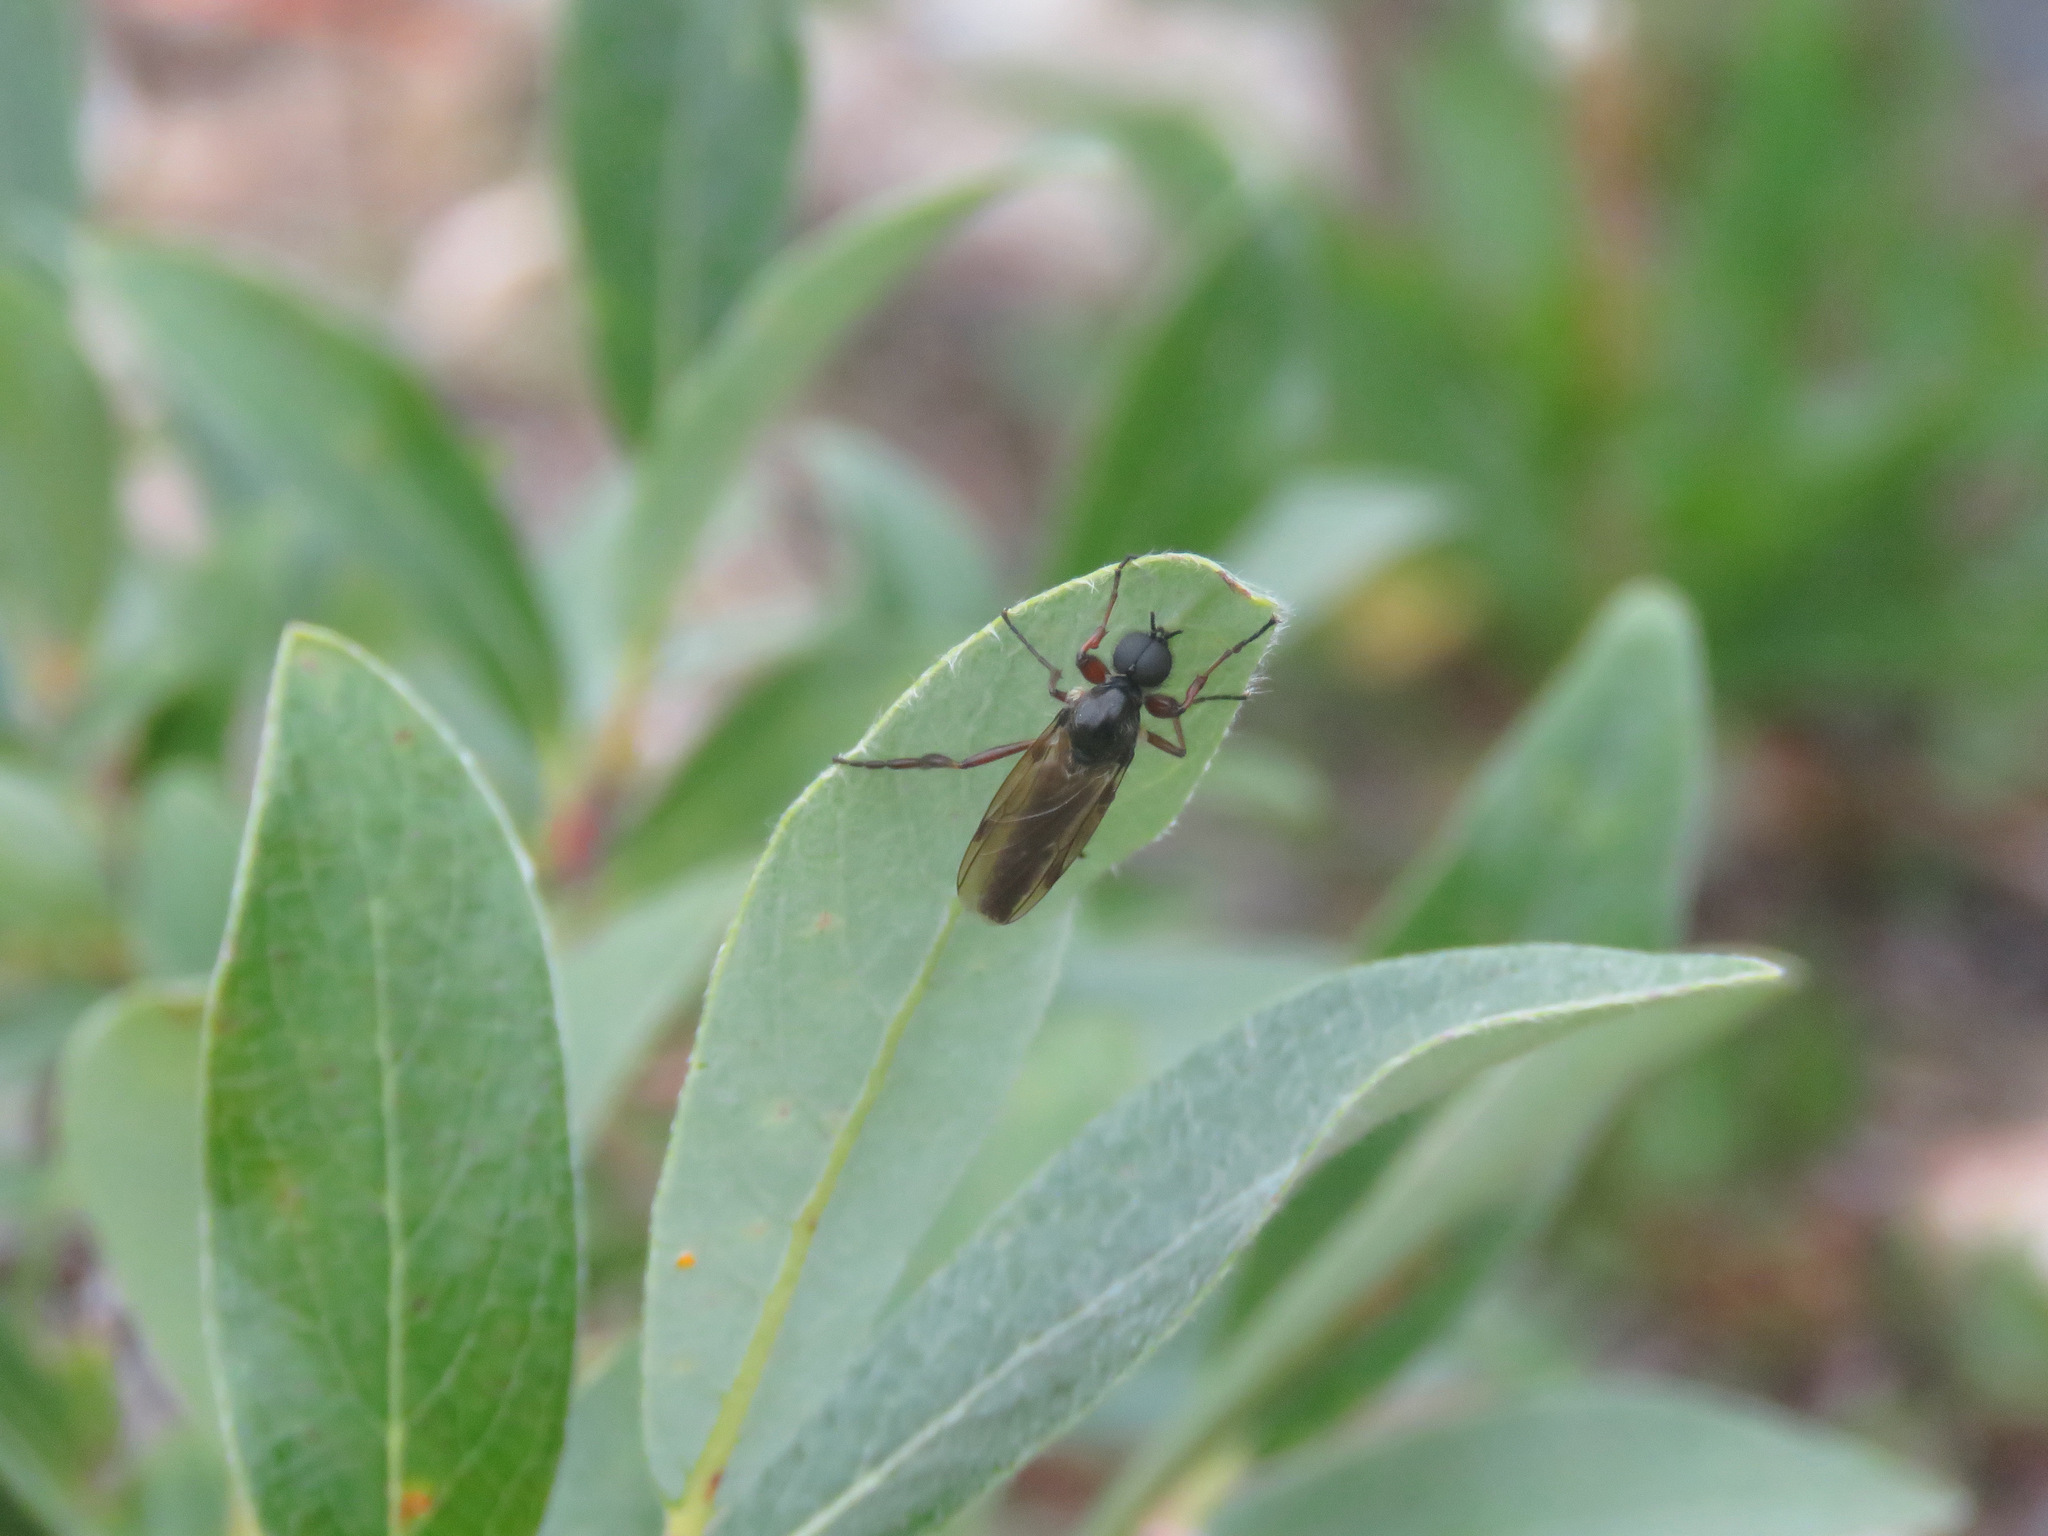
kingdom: Animalia
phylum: Arthropoda
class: Insecta
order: Diptera
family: Bibionidae
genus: Bibio
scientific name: Bibio brunnipes
